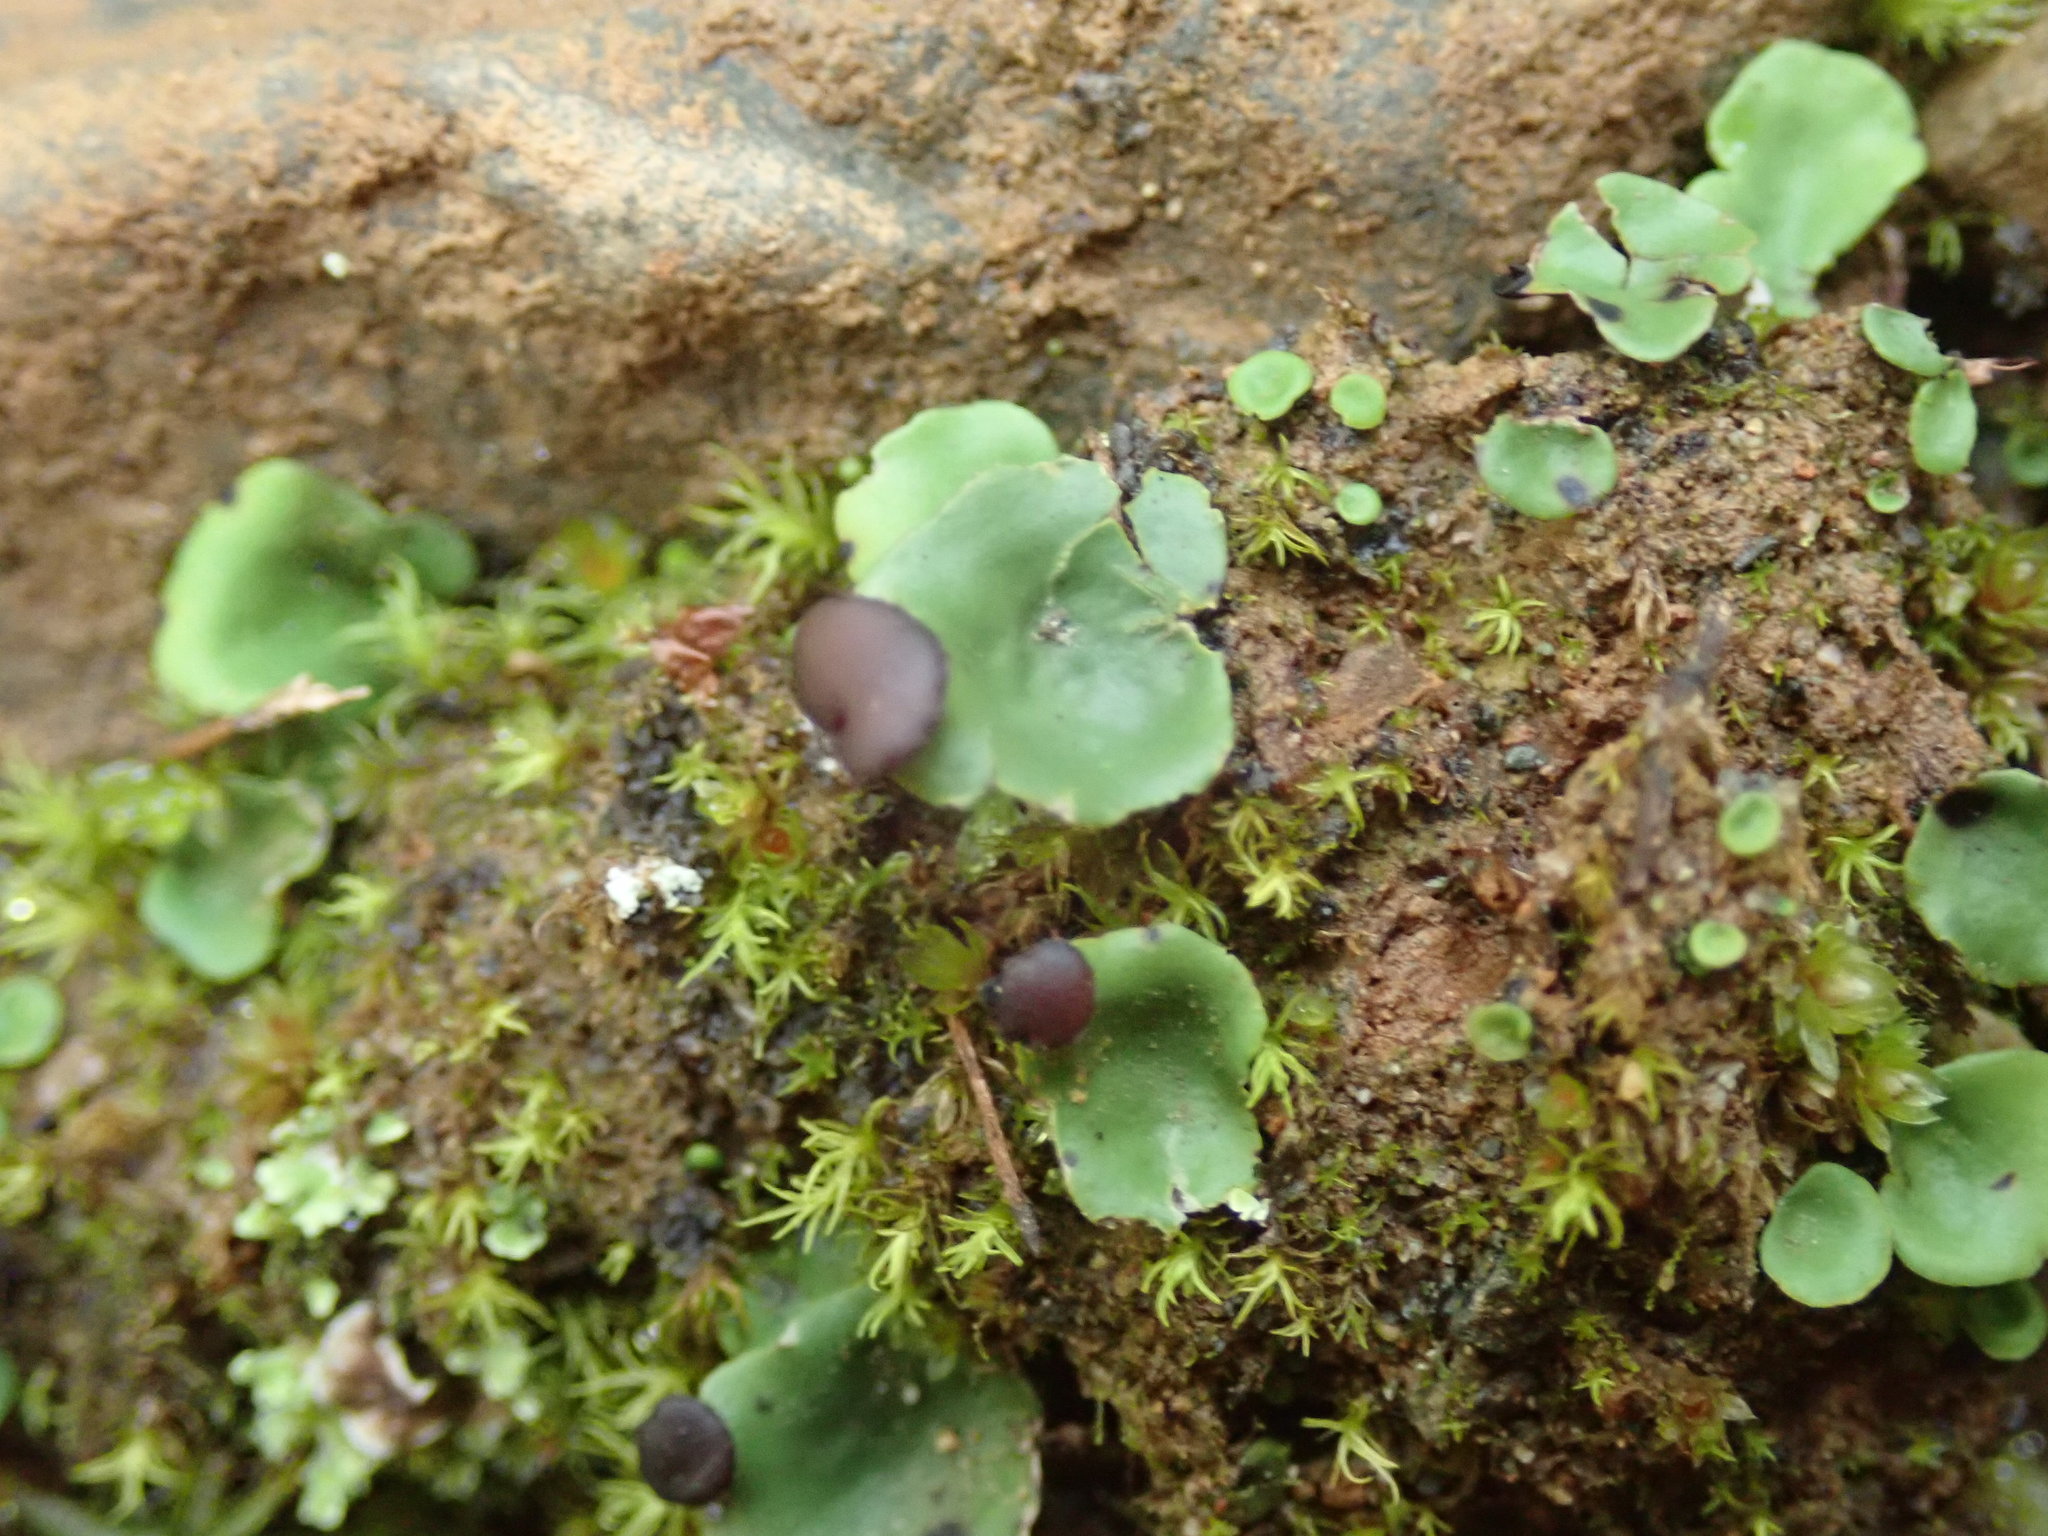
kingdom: Fungi
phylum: Ascomycota
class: Lecanoromycetes
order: Peltigerales
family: Peltigeraceae
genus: Peltigera
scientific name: Peltigera venosa
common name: Pixie gowns lichen
